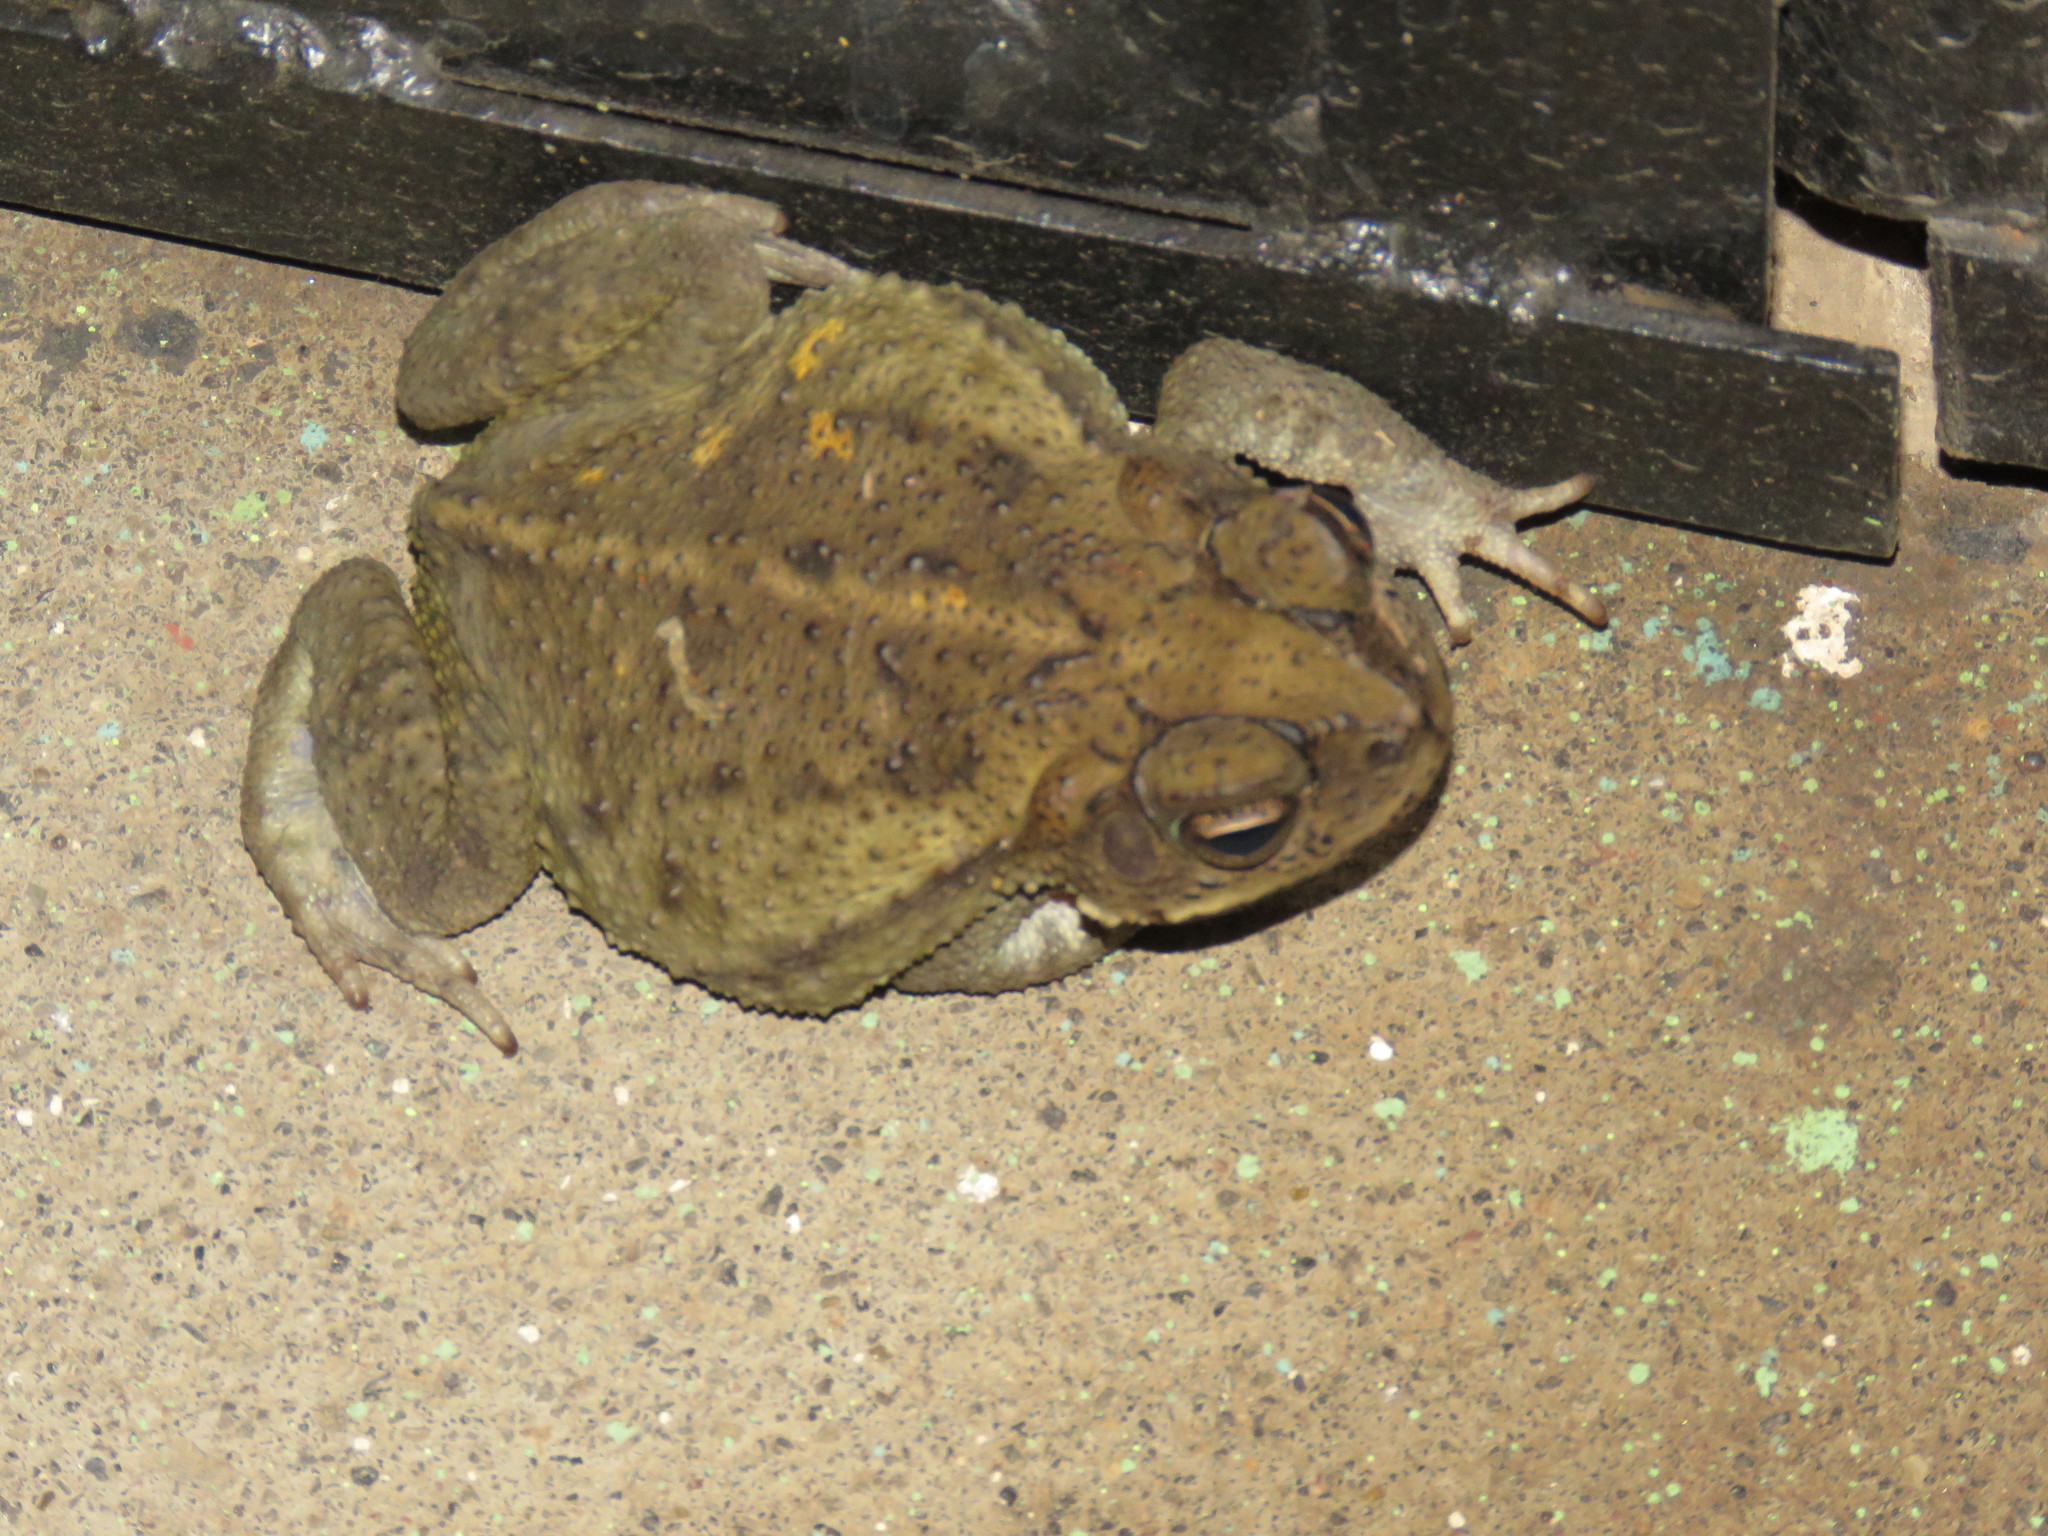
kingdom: Animalia
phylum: Chordata
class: Amphibia
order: Anura
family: Bufonidae
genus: Incilius
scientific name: Incilius luetkenii
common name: Yellow toad
